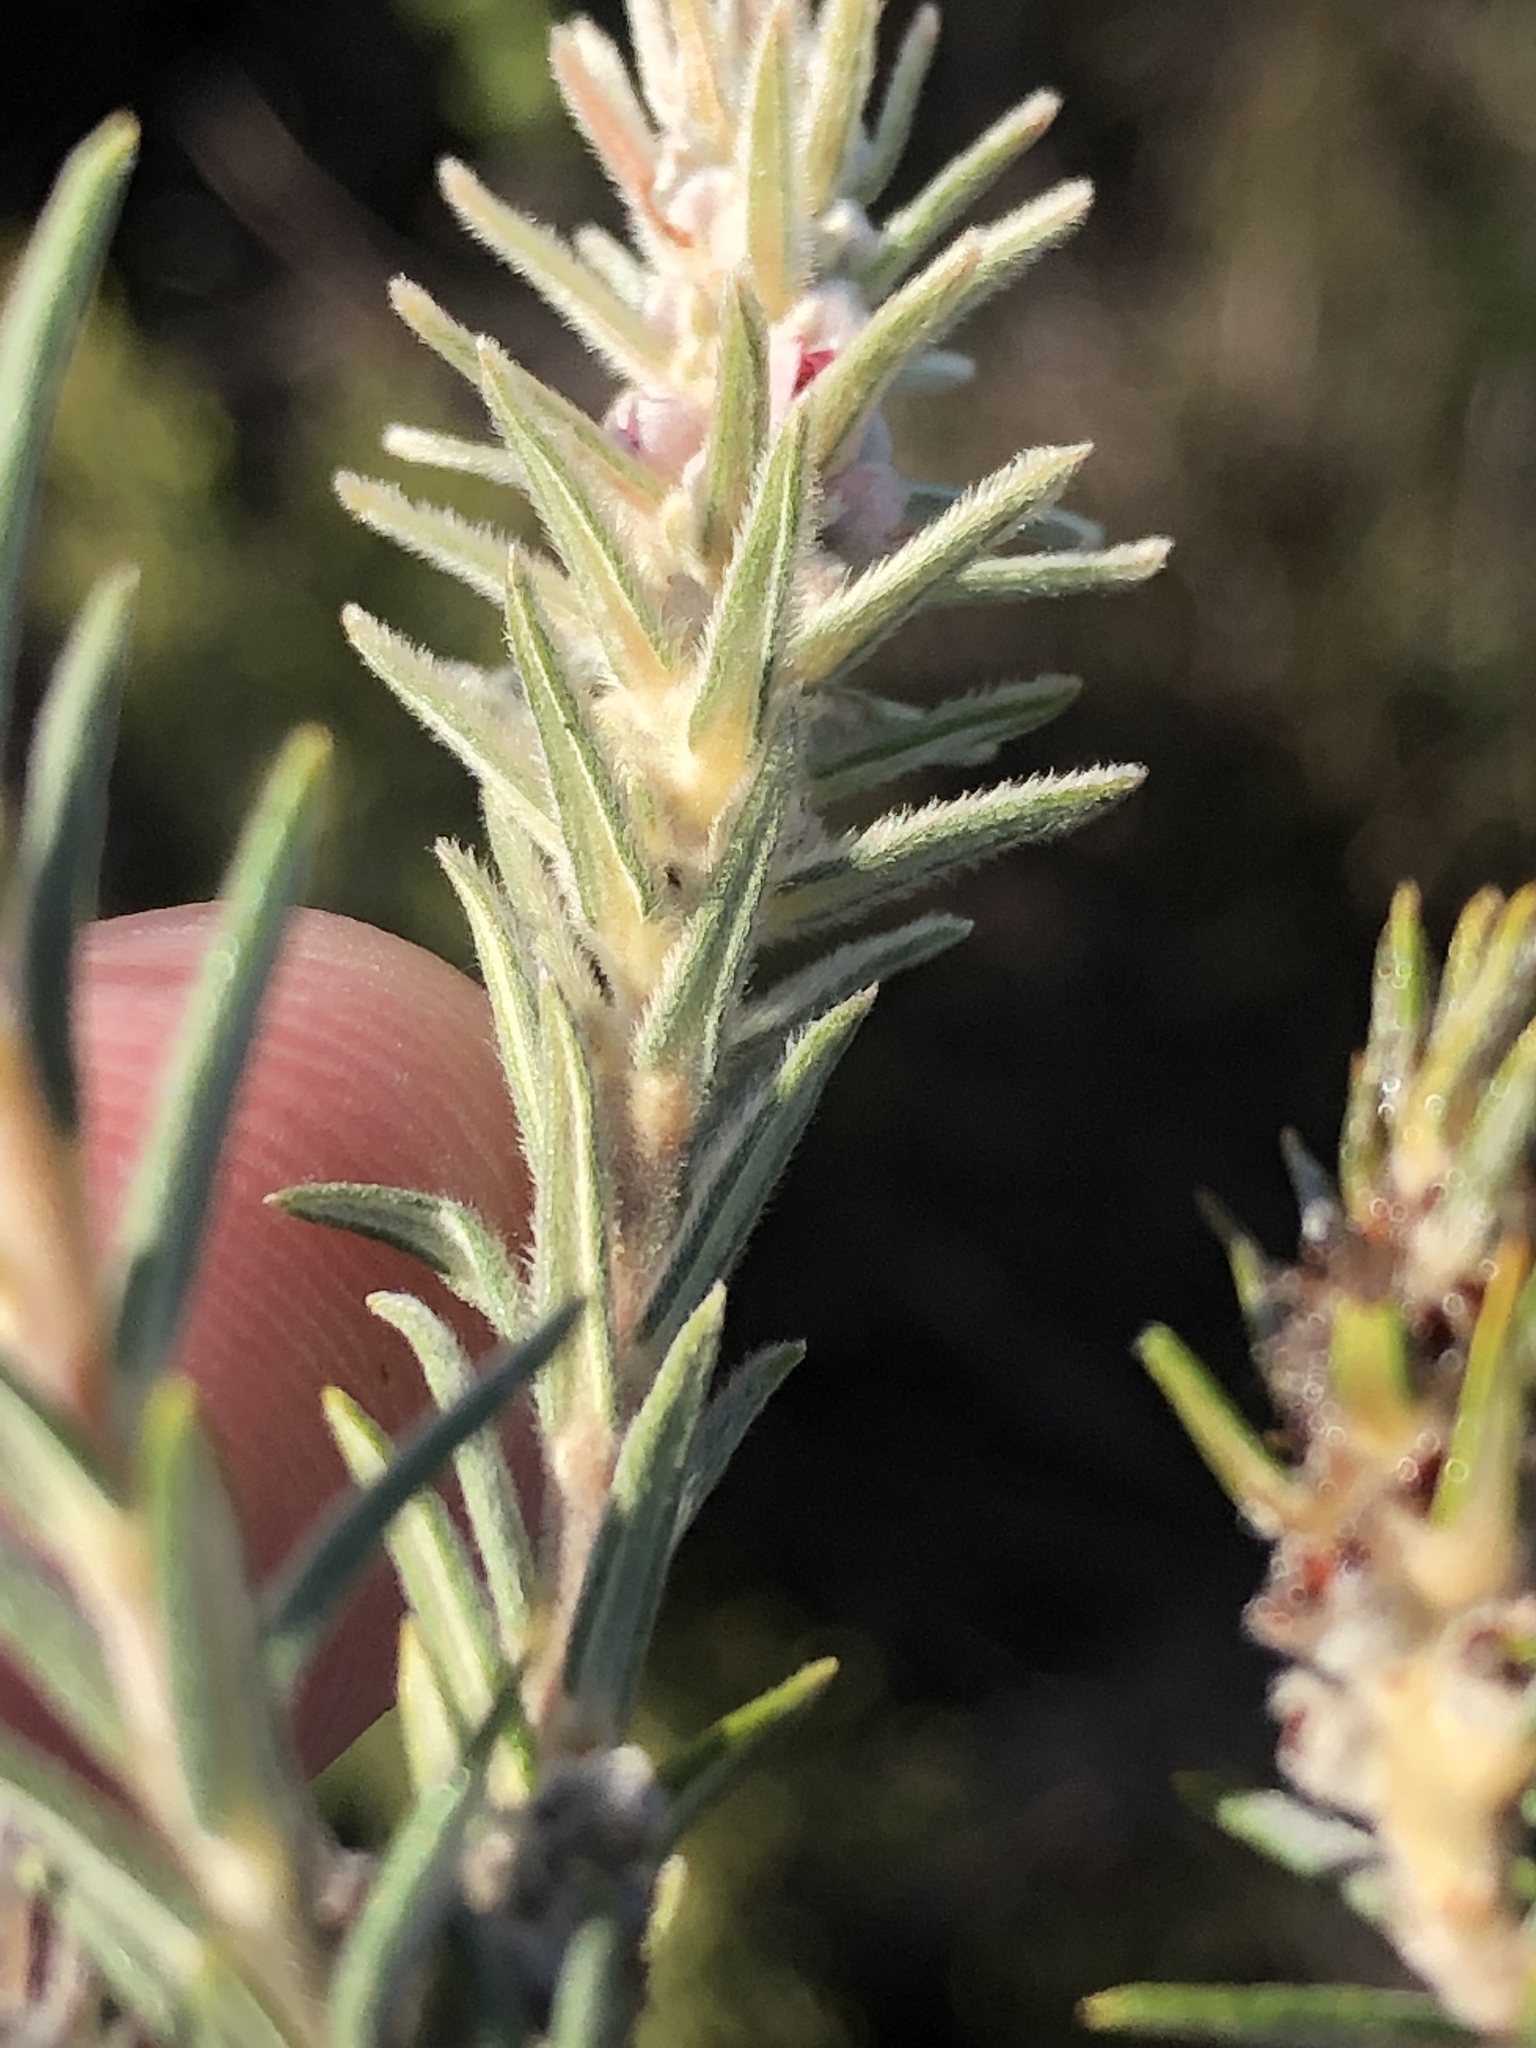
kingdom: Plantae
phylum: Tracheophyta
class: Magnoliopsida
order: Rosales
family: Rhamnaceae
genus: Phylica
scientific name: Phylica velutina
